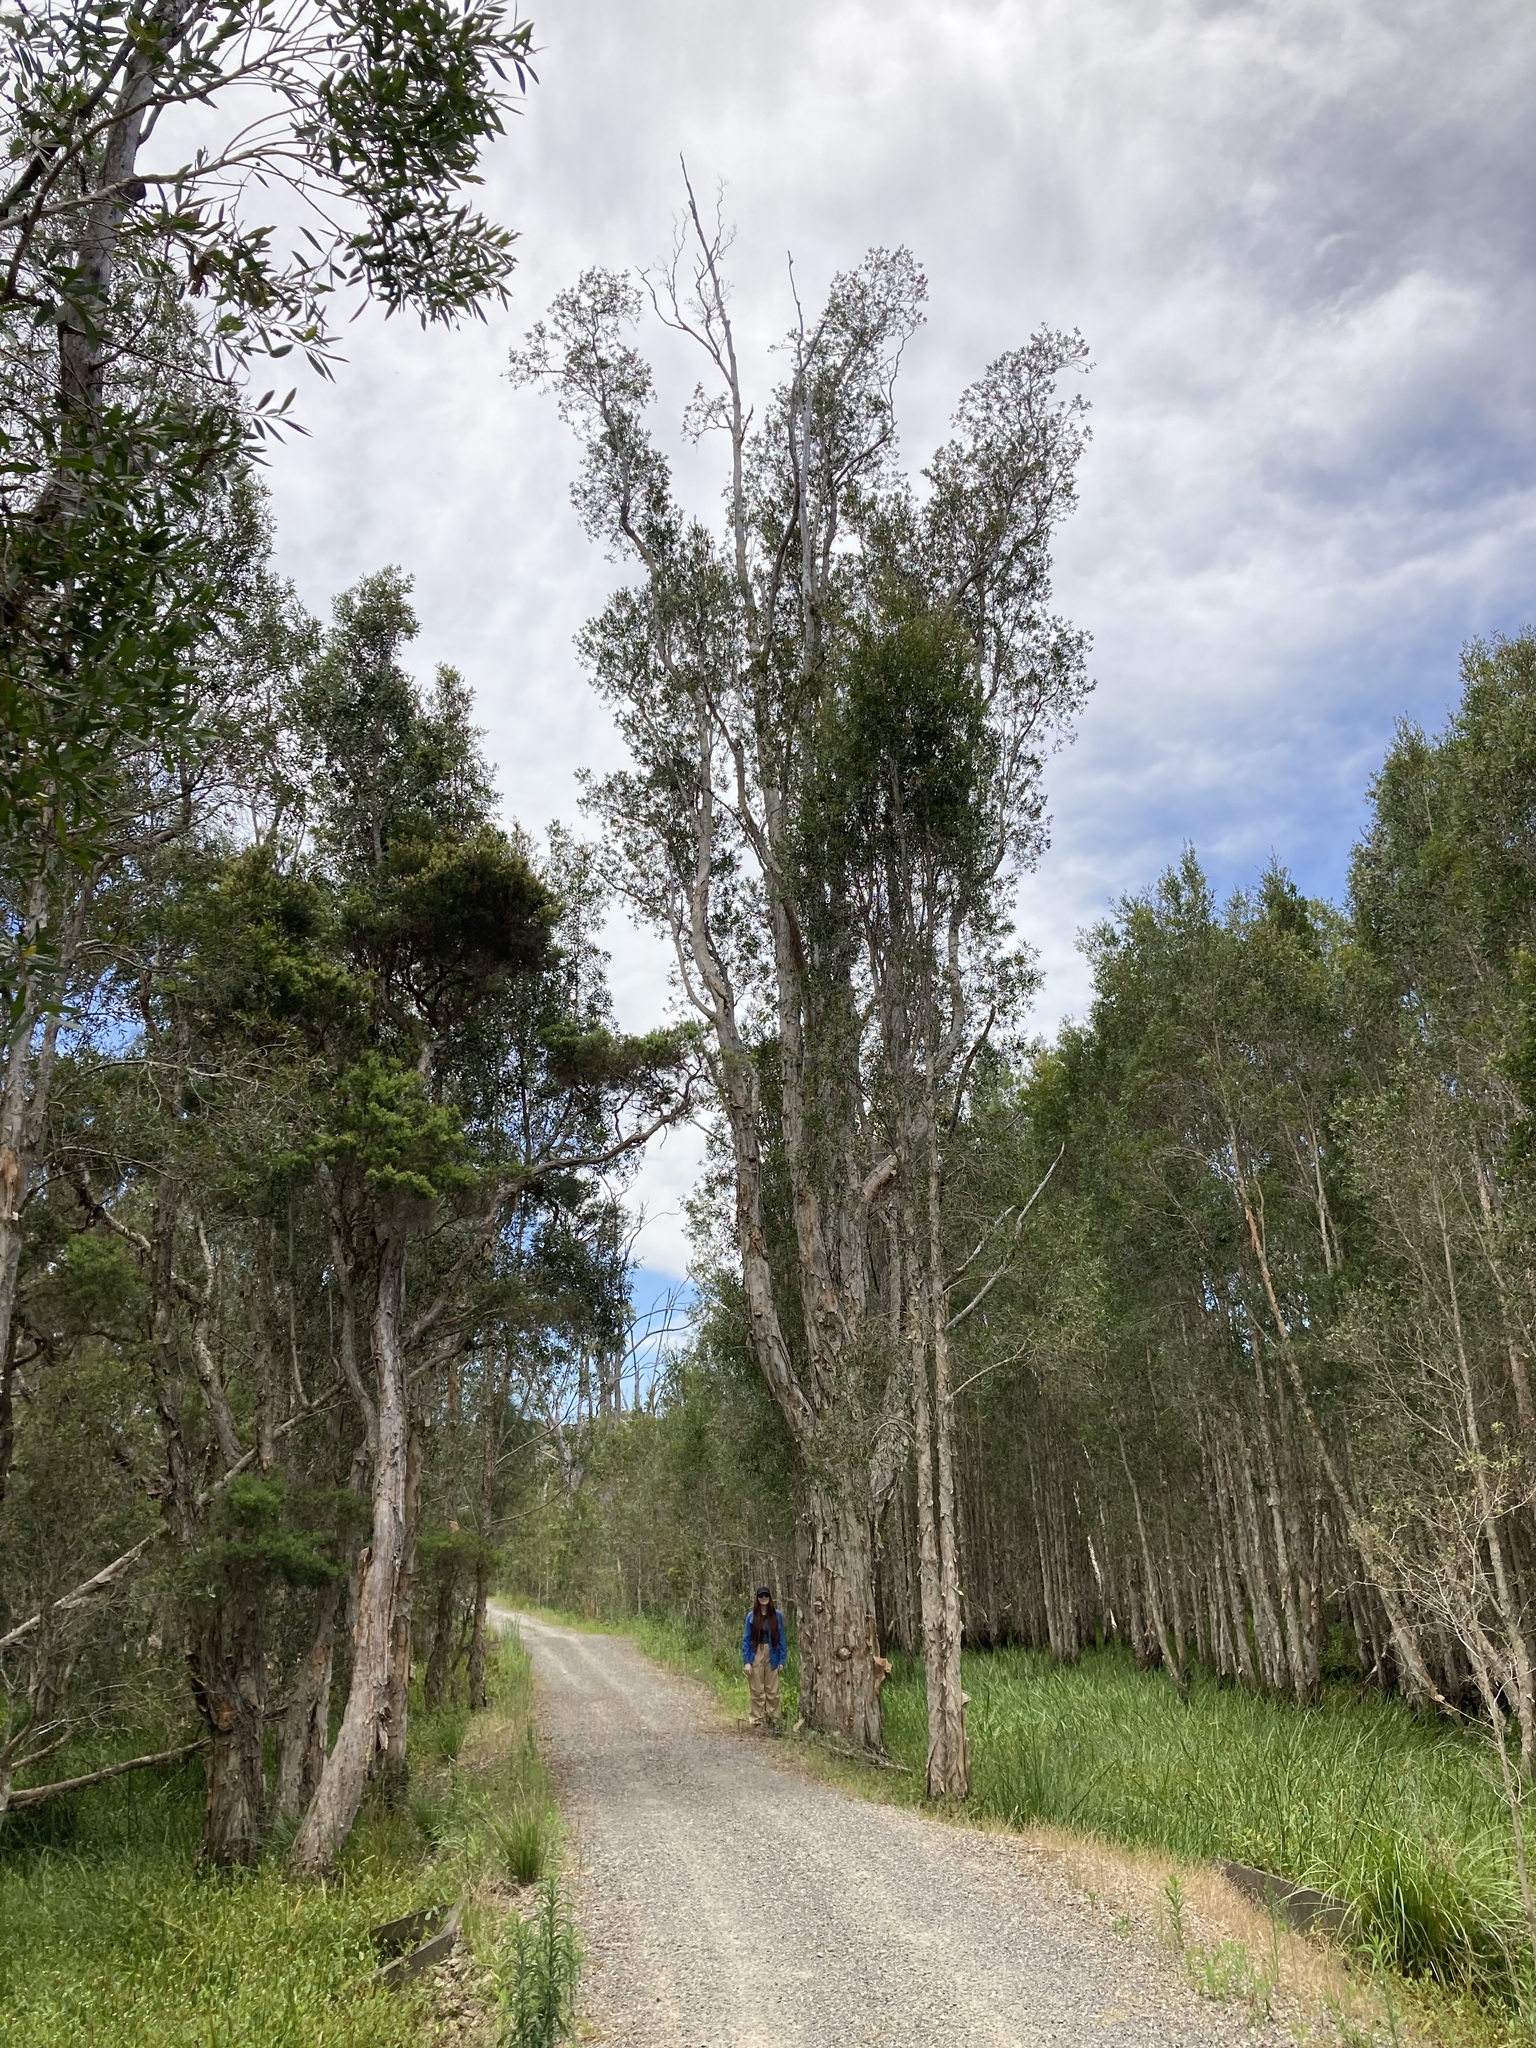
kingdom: Plantae
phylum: Tracheophyta
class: Magnoliopsida
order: Myrtales
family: Myrtaceae
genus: Melaleuca
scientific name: Melaleuca quinquenervia
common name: Punktree
